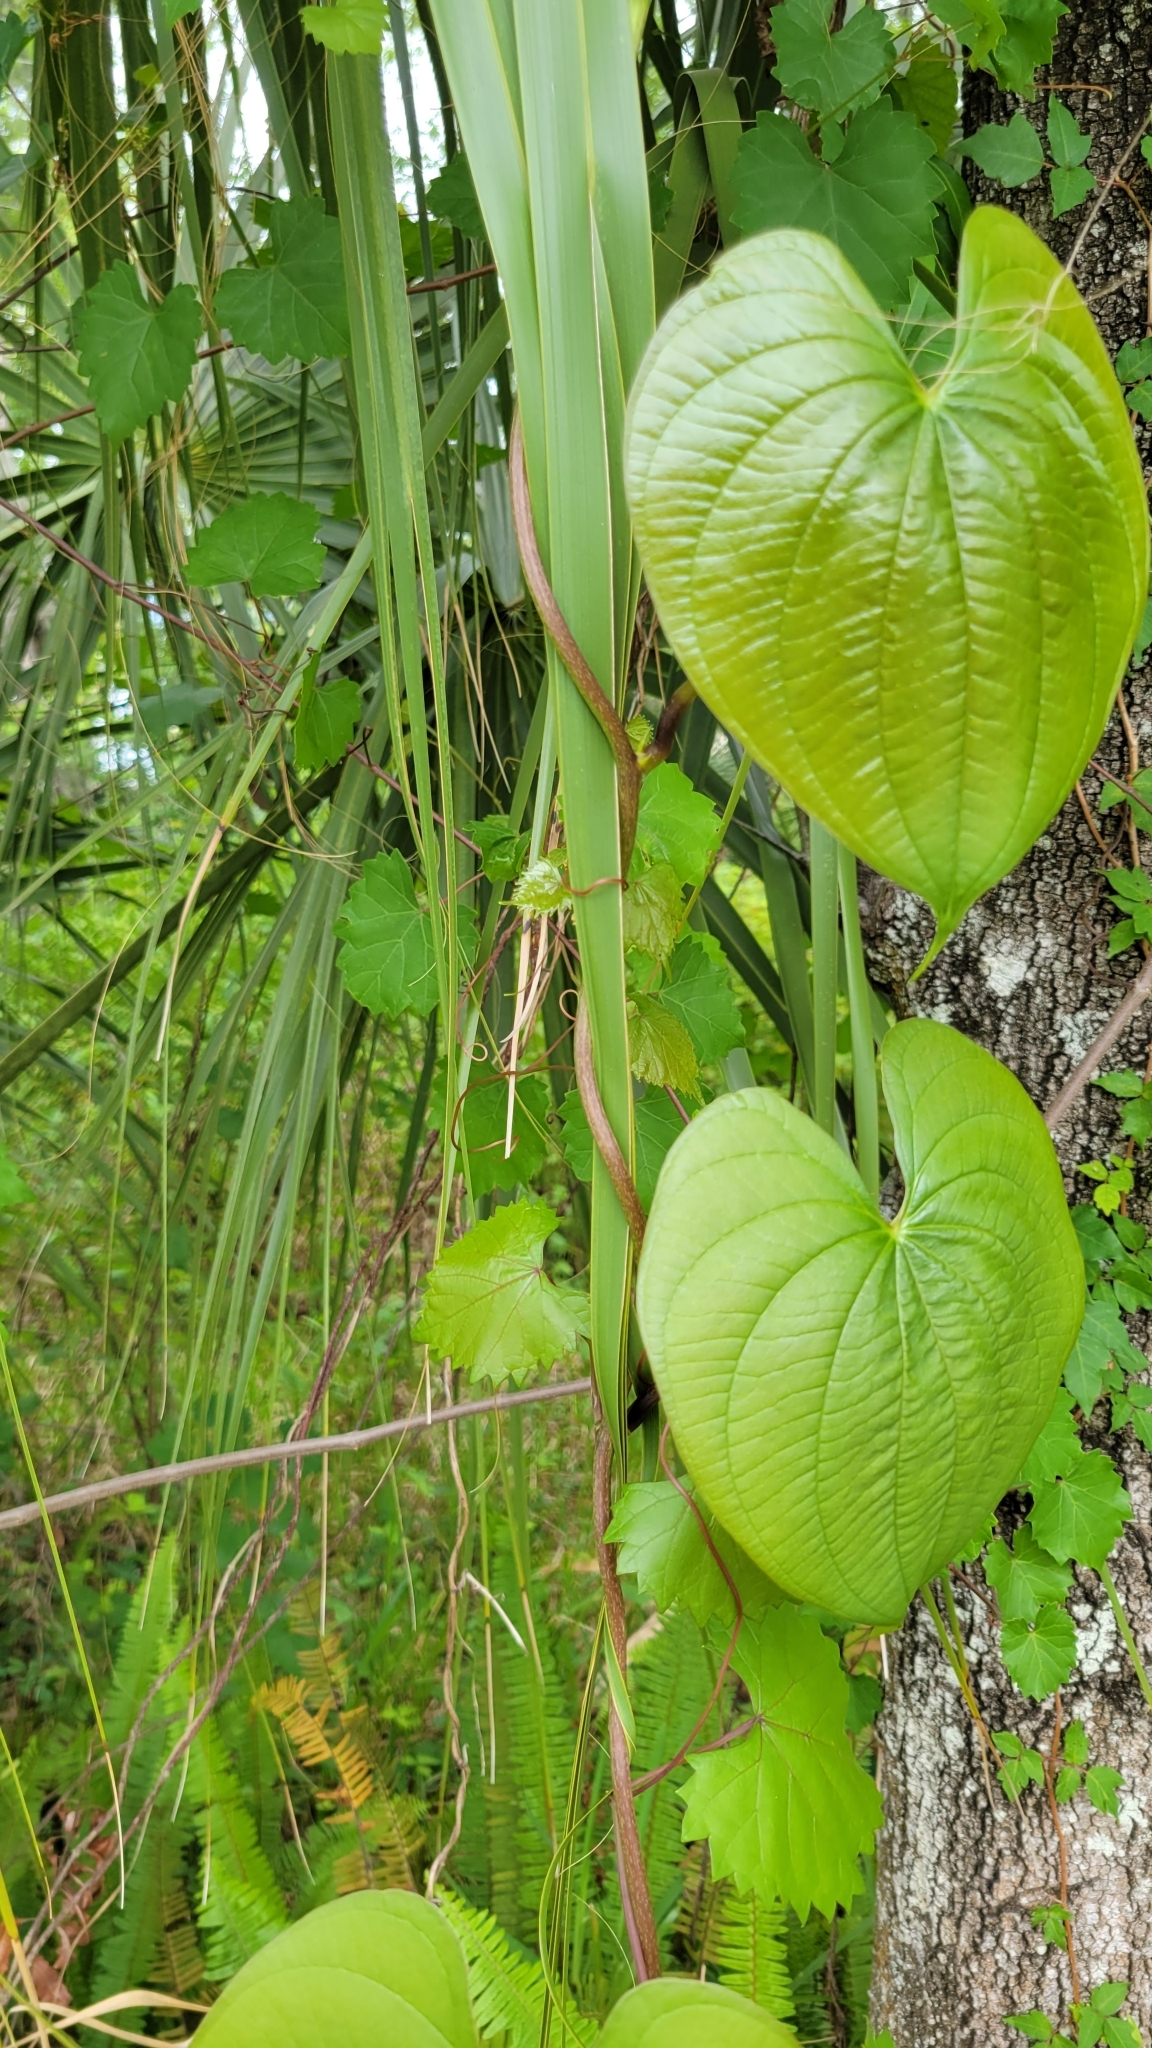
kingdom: Plantae
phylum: Tracheophyta
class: Liliopsida
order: Dioscoreales
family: Dioscoreaceae
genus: Dioscorea
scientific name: Dioscorea bulbifera
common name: Air yam
